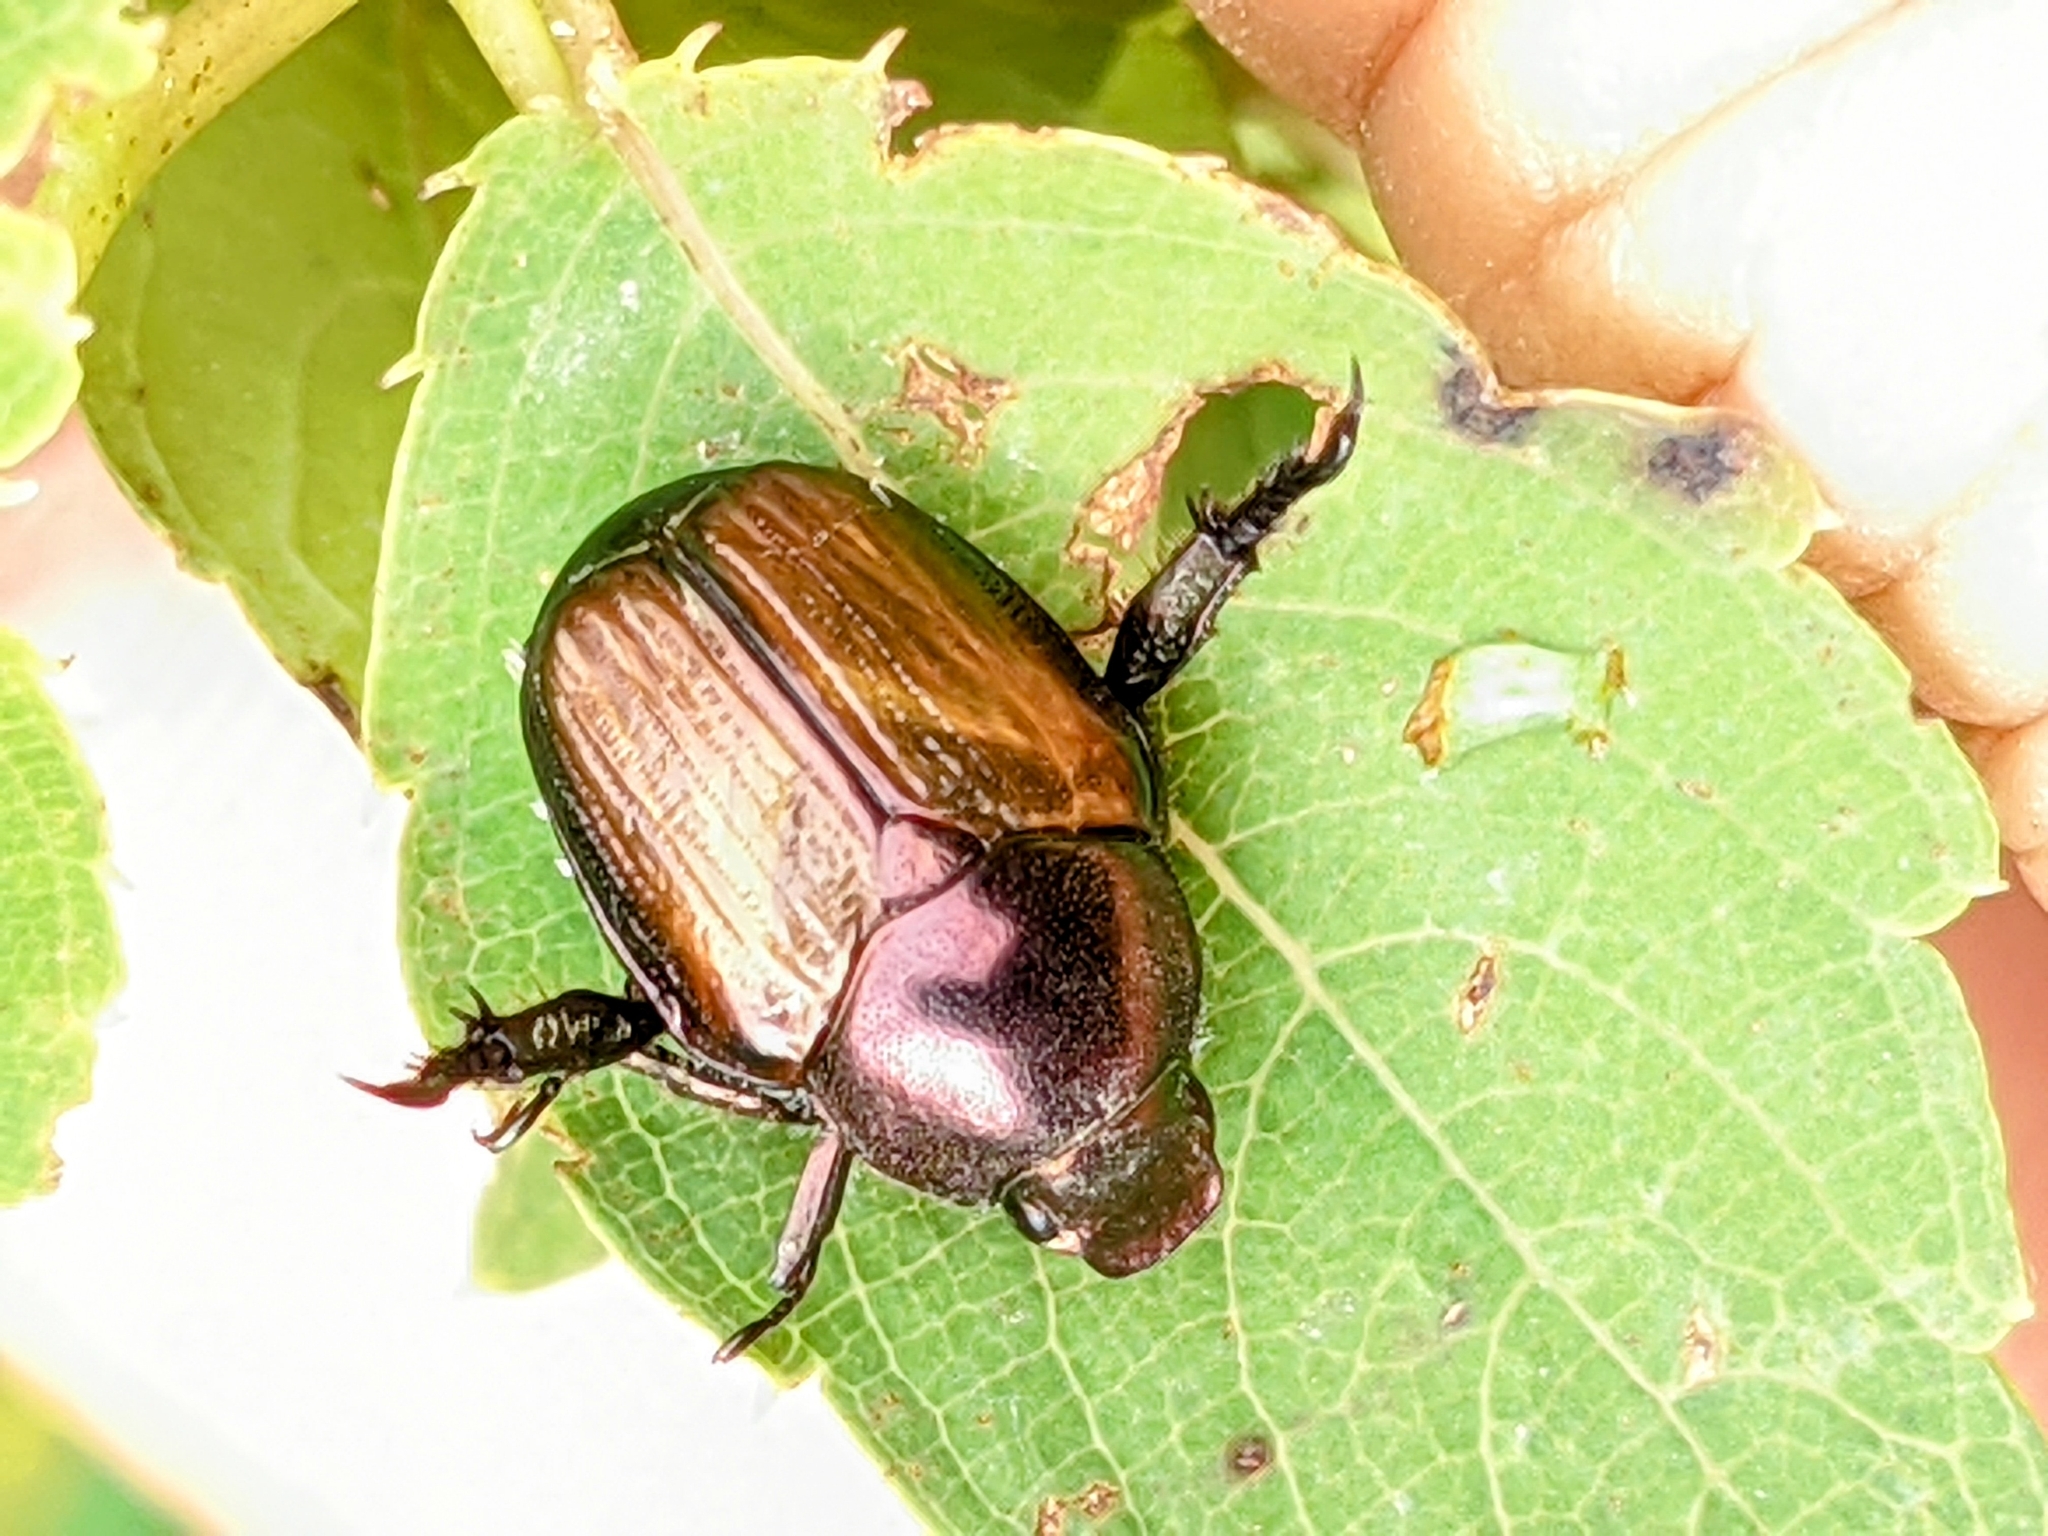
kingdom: Animalia
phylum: Arthropoda
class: Insecta
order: Coleoptera
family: Scarabaeidae
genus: Popillia
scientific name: Popillia japonica
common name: Japanese beetle
